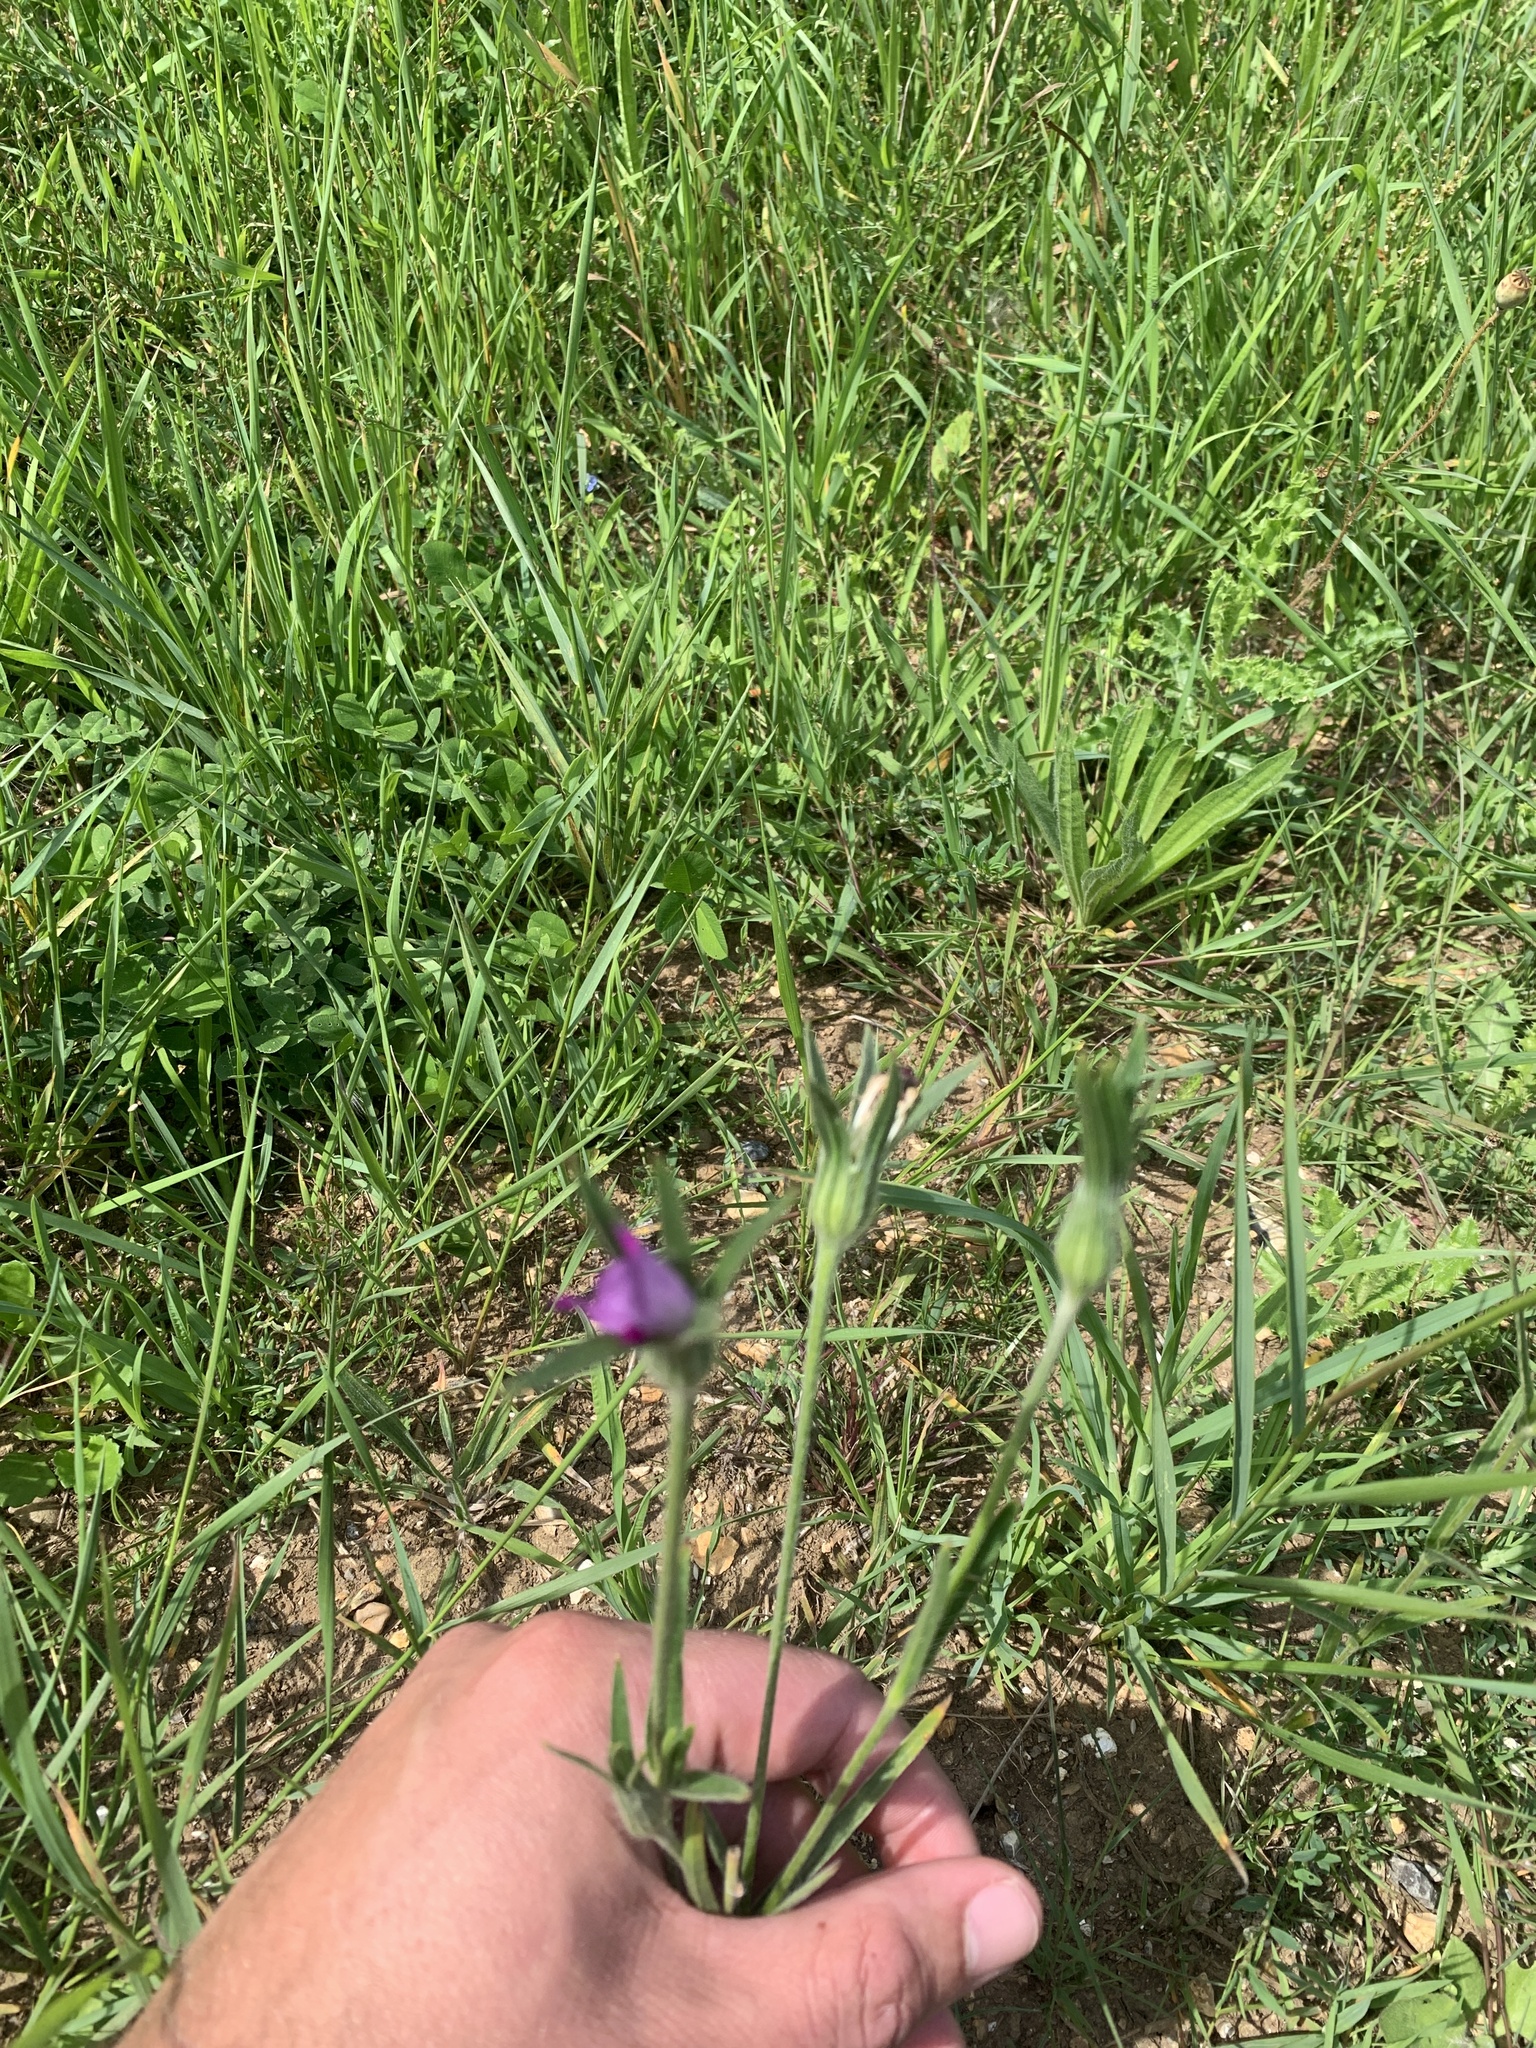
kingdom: Plantae
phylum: Tracheophyta
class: Magnoliopsida
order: Caryophyllales
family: Caryophyllaceae
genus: Agrostemma
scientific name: Agrostemma githago
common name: Common corncockle
